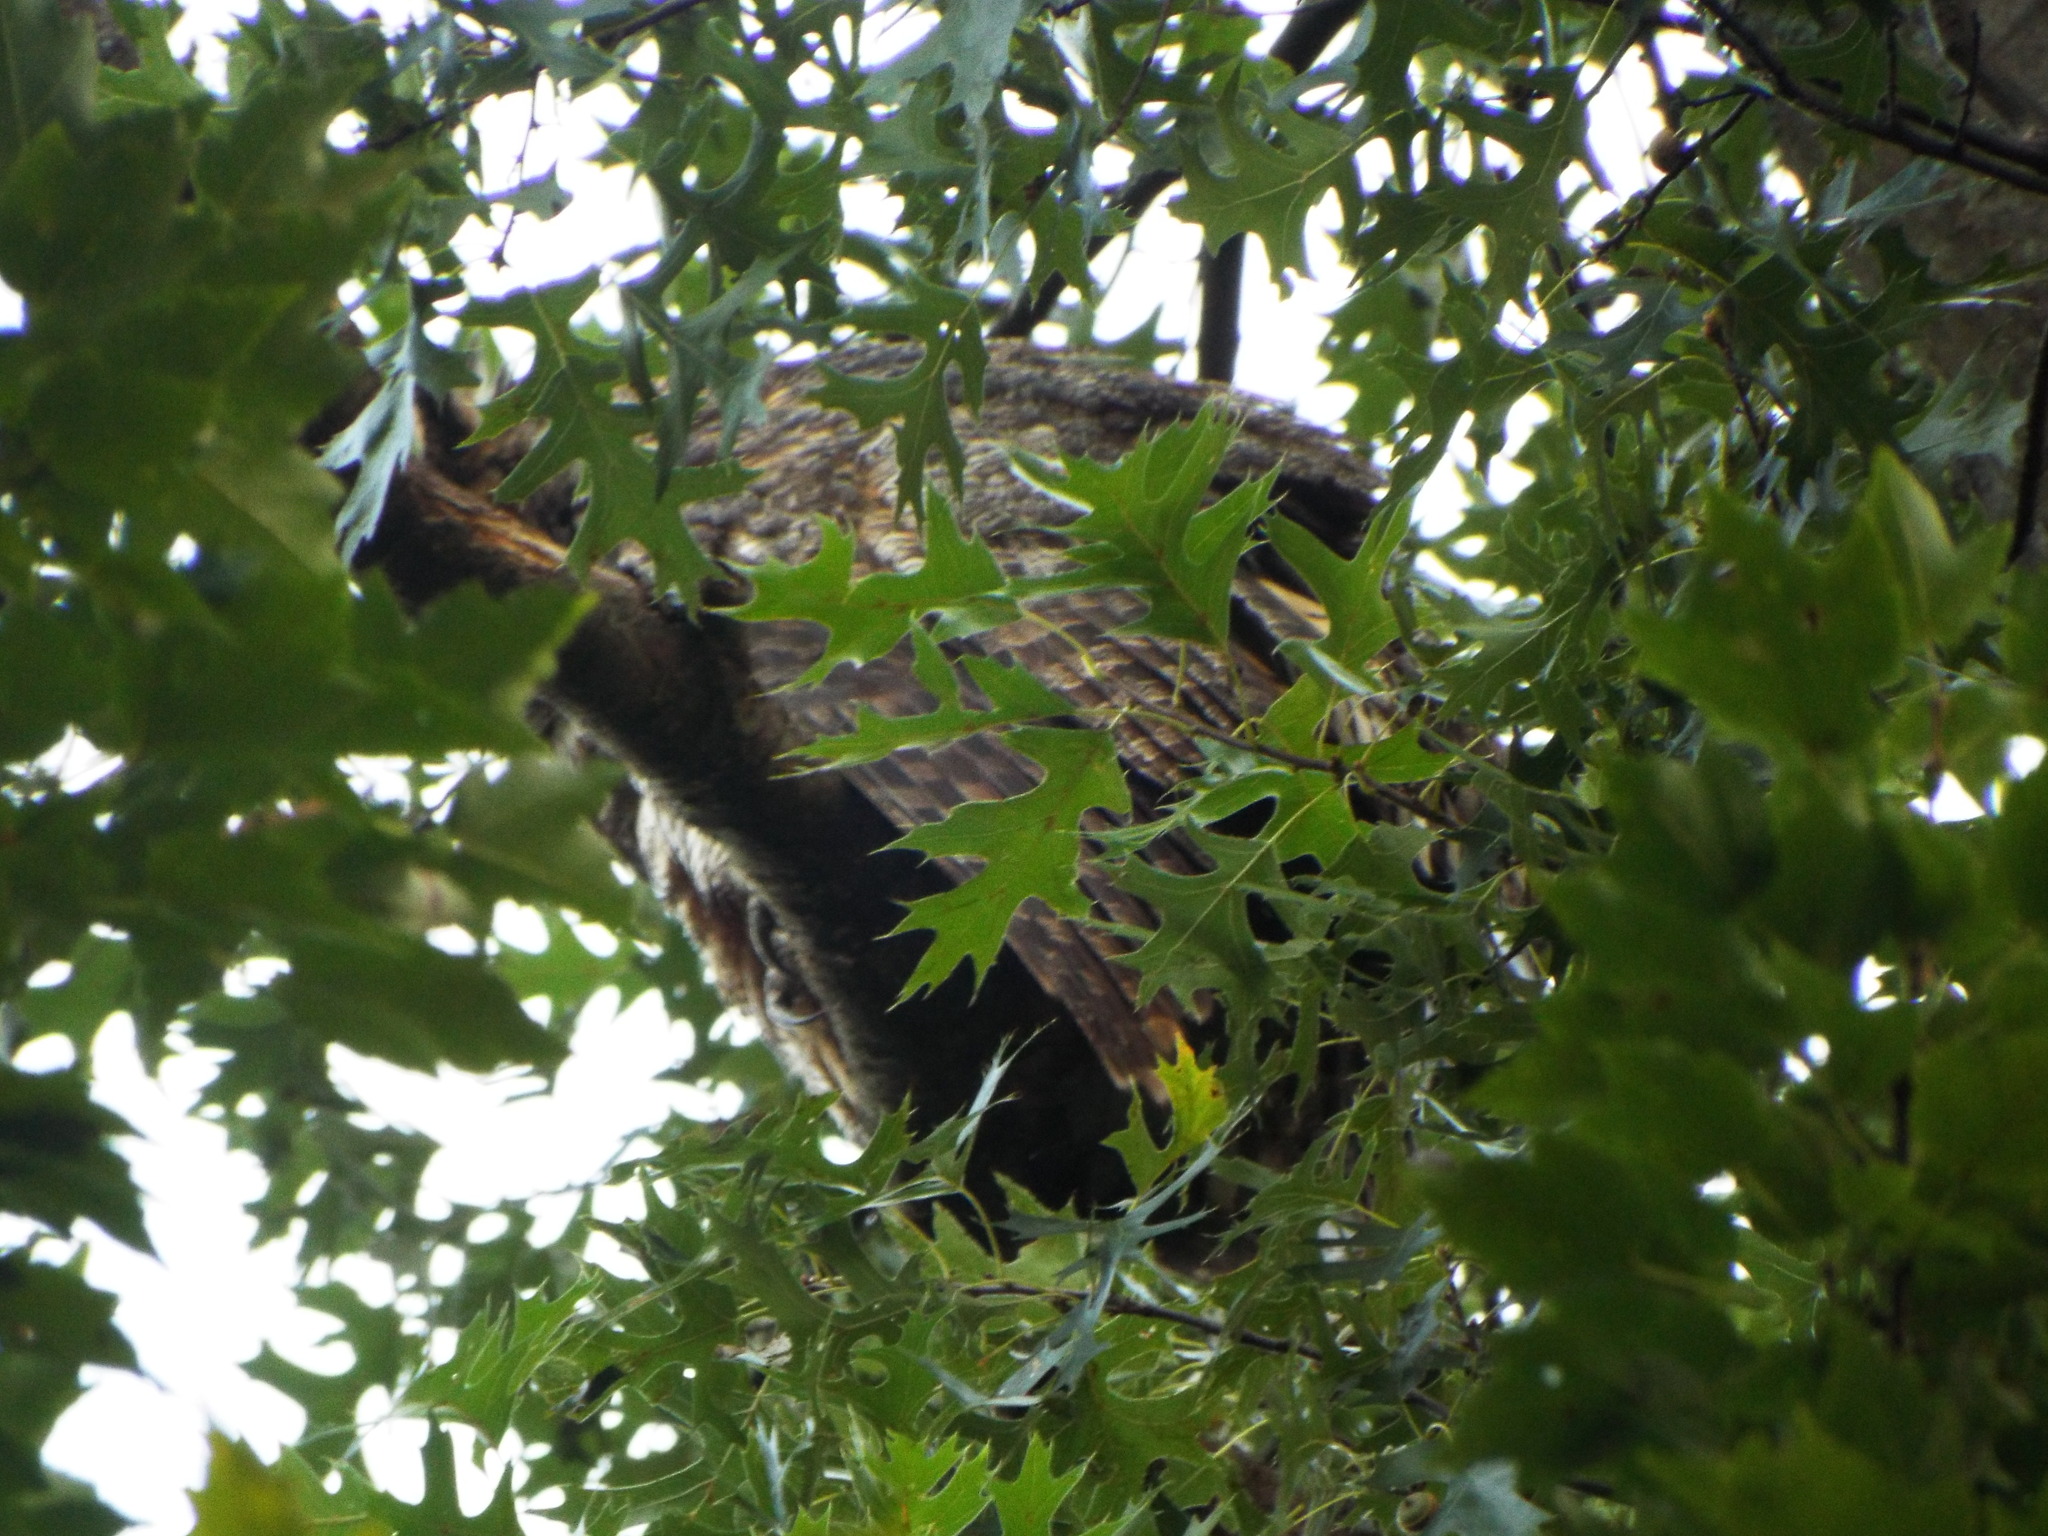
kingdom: Animalia
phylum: Chordata
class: Aves
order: Strigiformes
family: Strigidae
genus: Bubo
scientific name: Bubo virginianus
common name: Great horned owl
